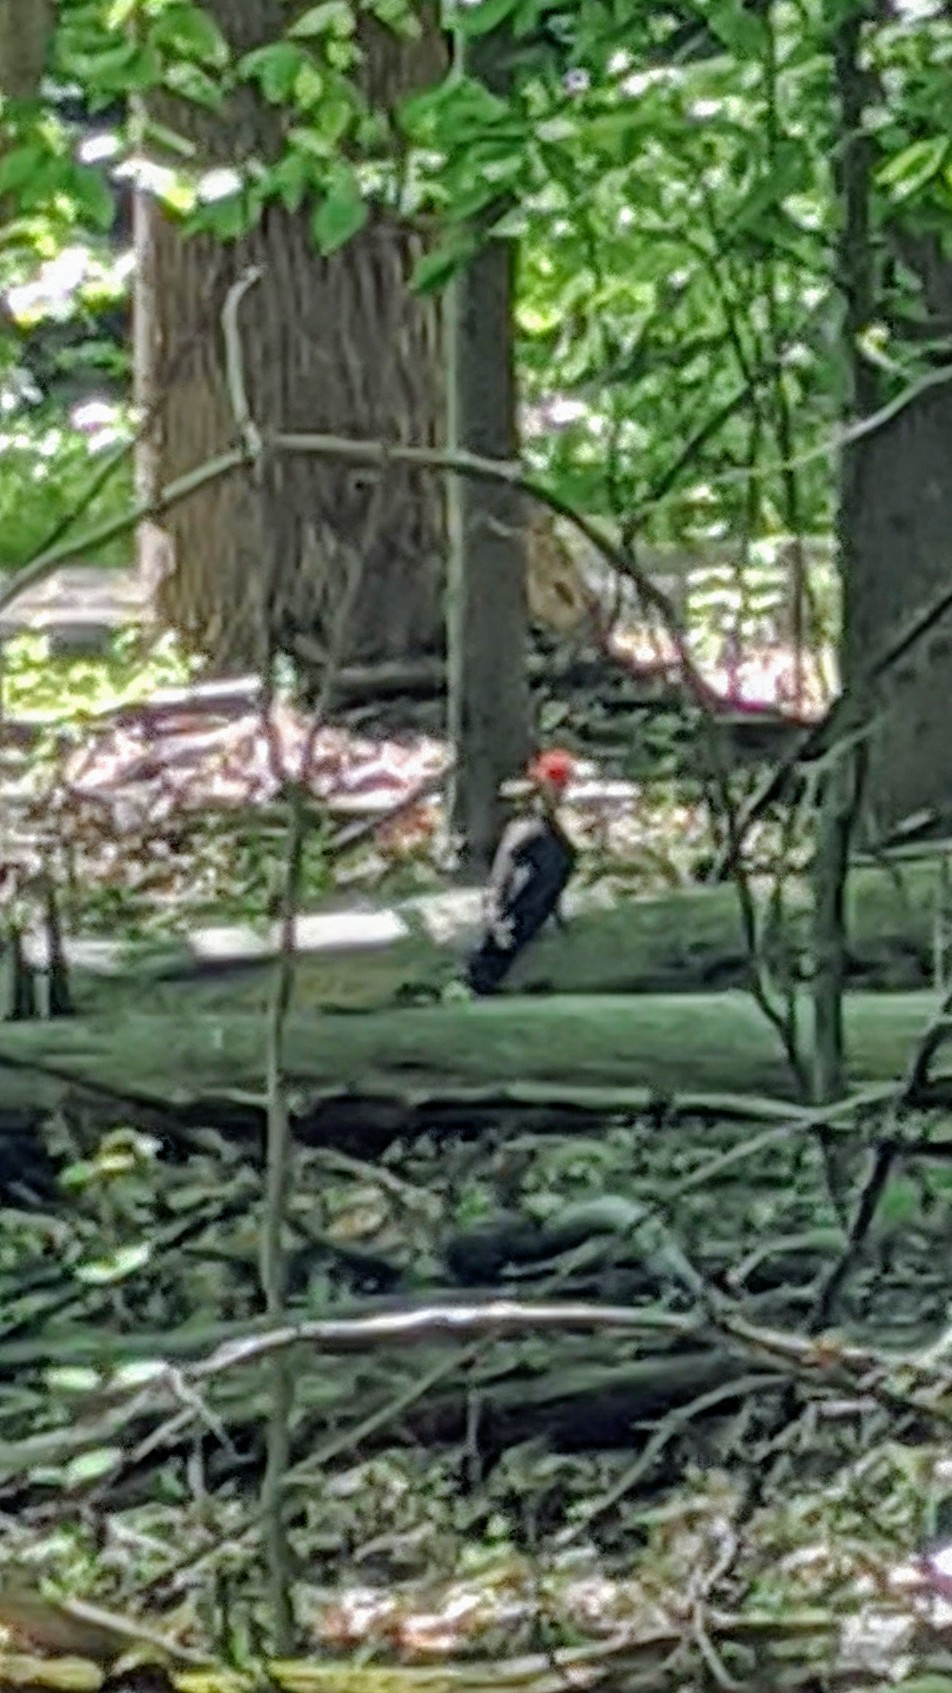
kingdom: Animalia
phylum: Chordata
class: Aves
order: Piciformes
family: Picidae
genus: Dryocopus
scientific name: Dryocopus pileatus
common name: Pileated woodpecker
